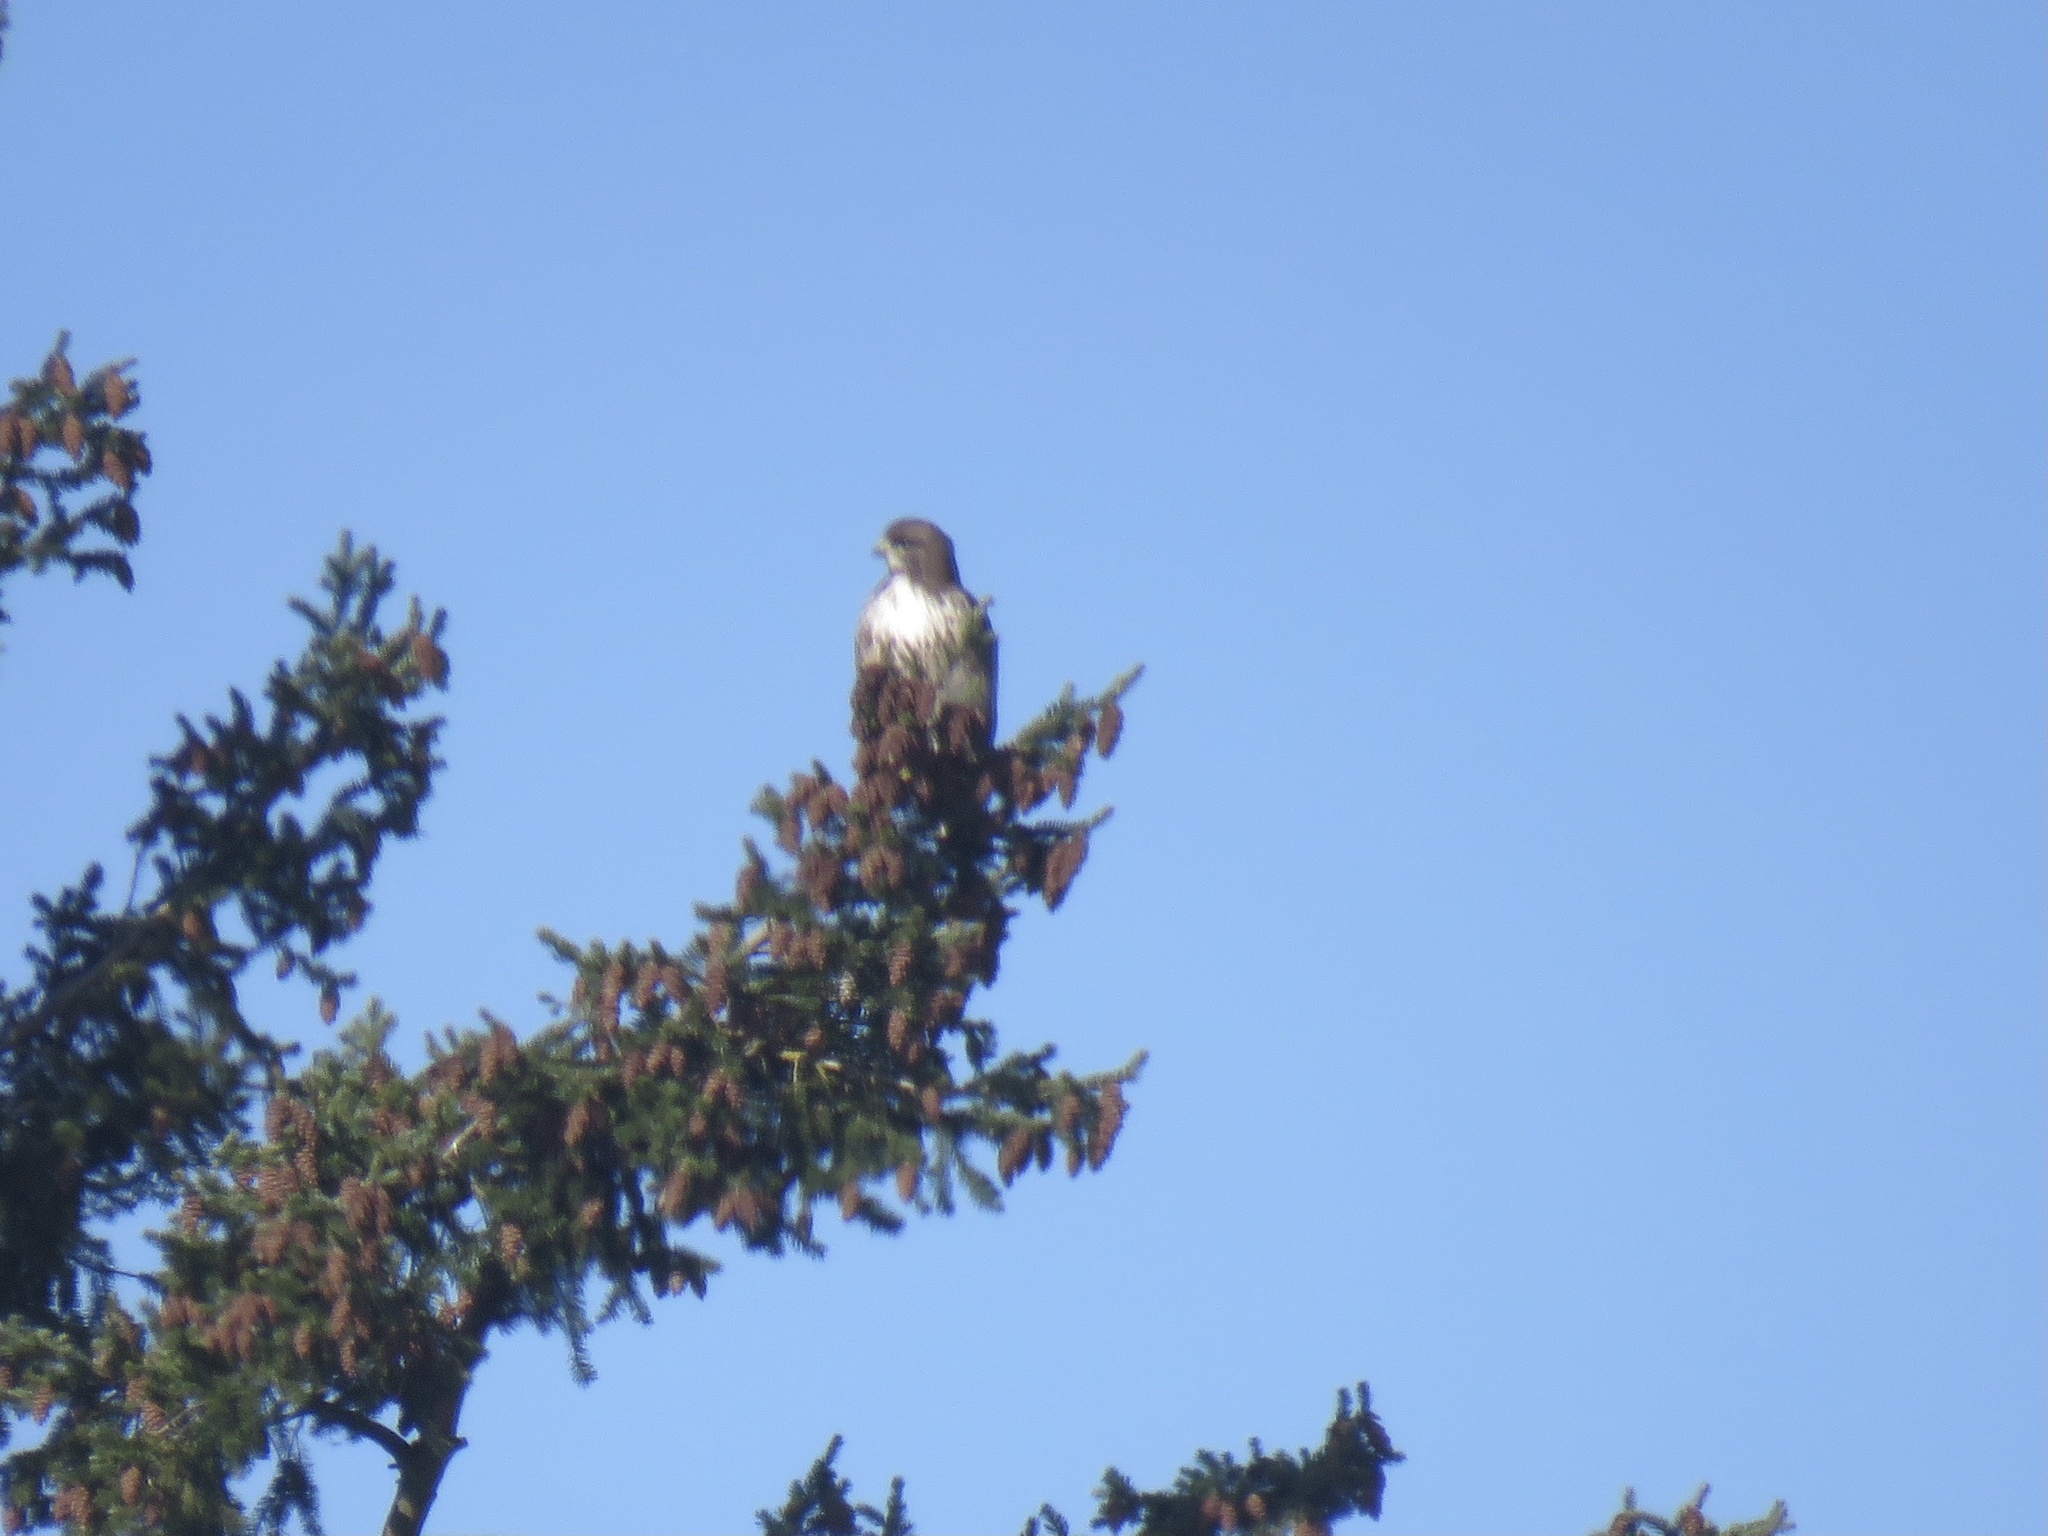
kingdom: Animalia
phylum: Chordata
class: Aves
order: Accipitriformes
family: Accipitridae
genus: Buteo
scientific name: Buteo jamaicensis
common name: Red-tailed hawk
